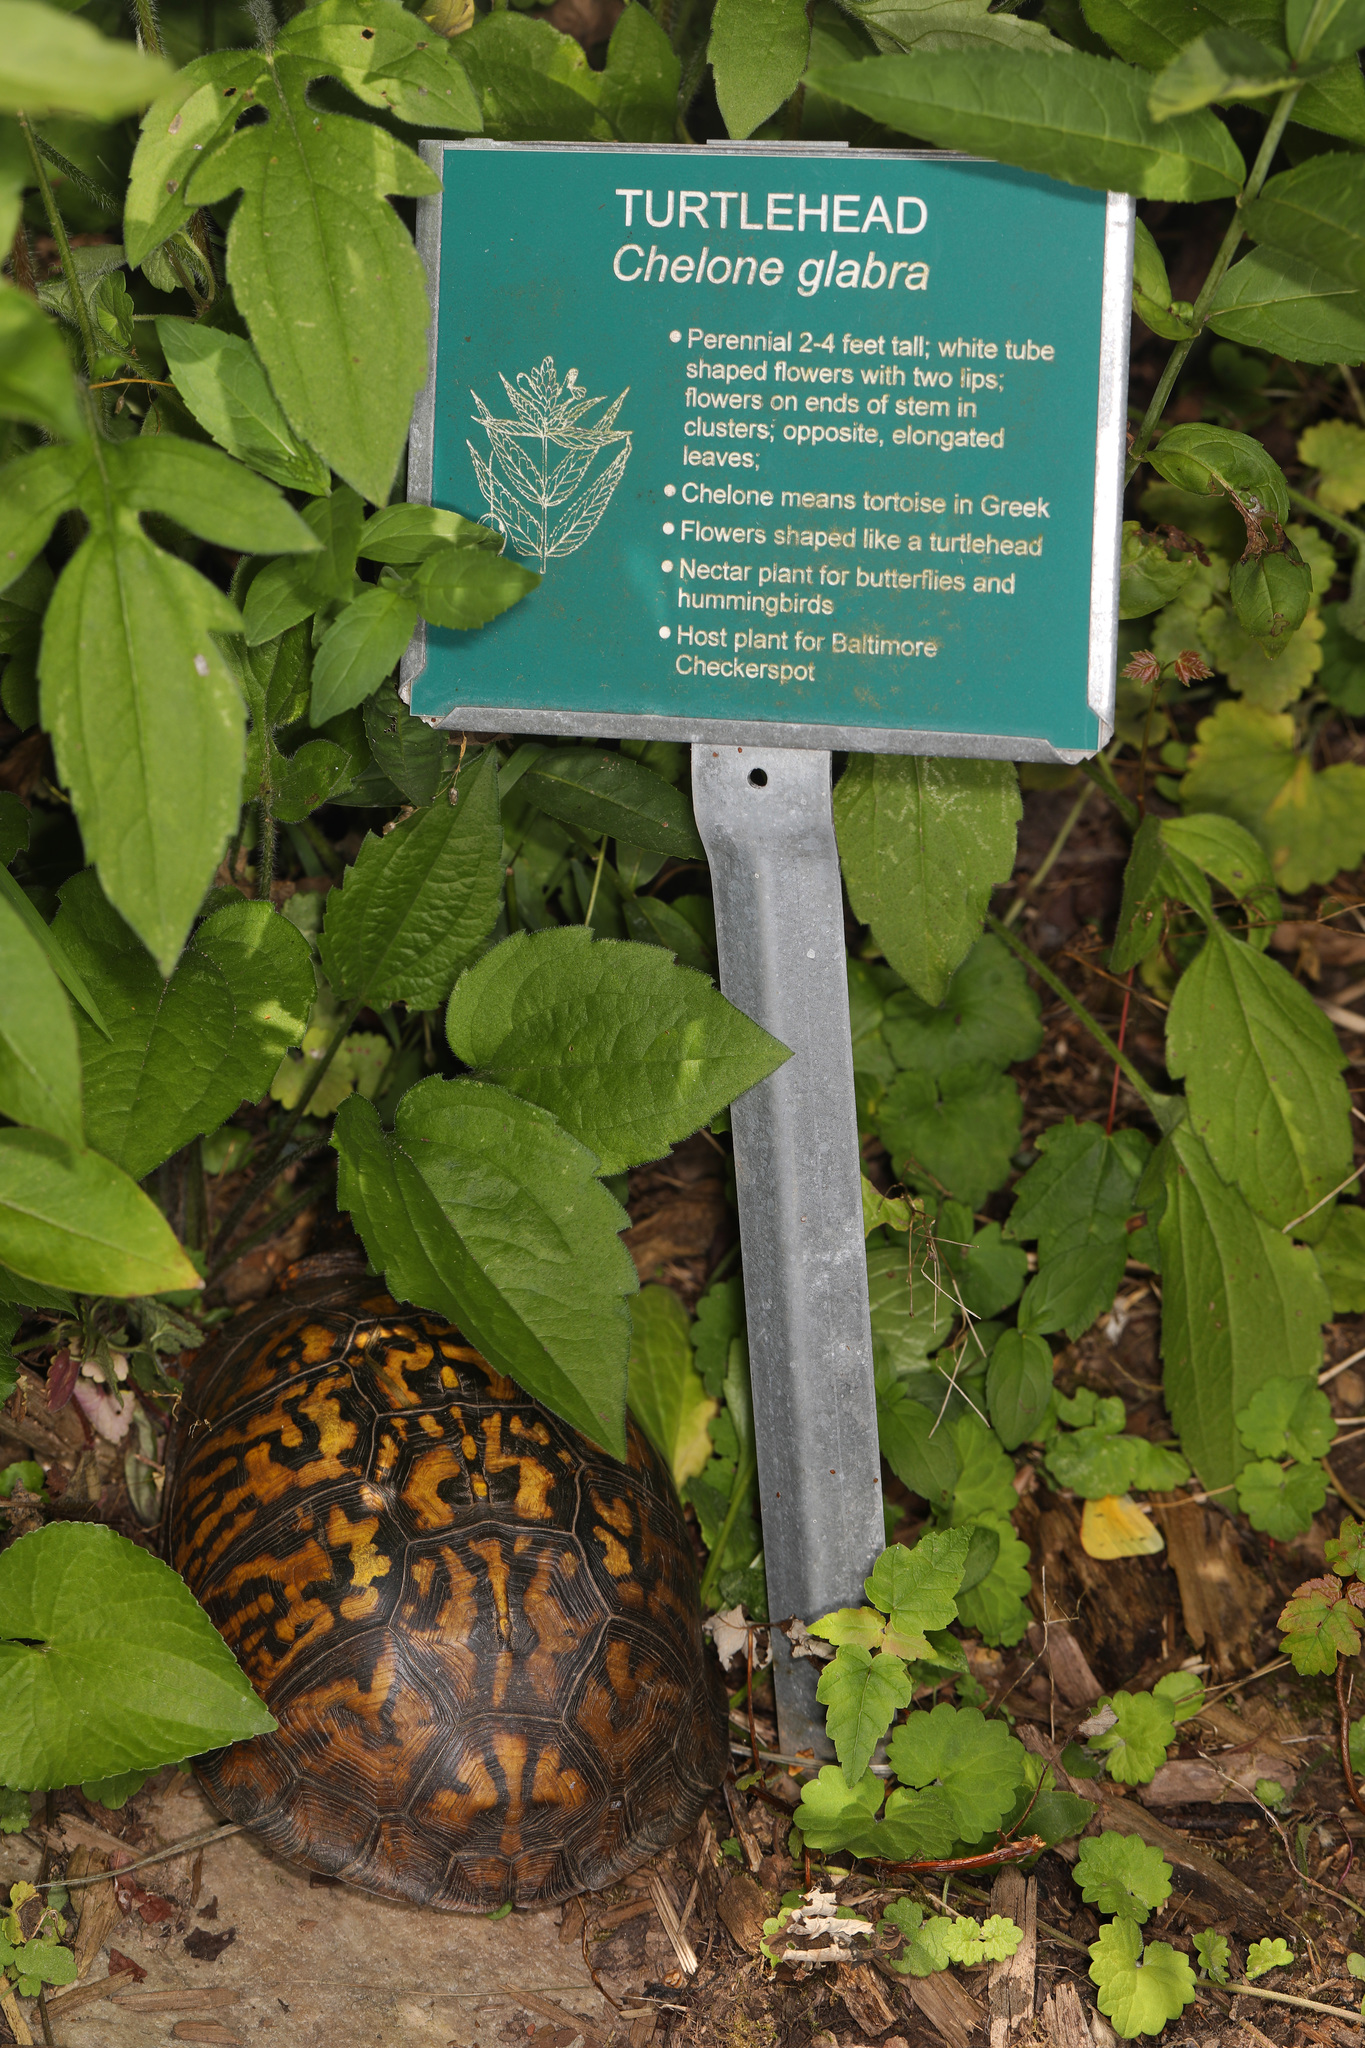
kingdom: Animalia
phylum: Chordata
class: Testudines
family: Emydidae
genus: Terrapene
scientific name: Terrapene carolina
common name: Common box turtle
